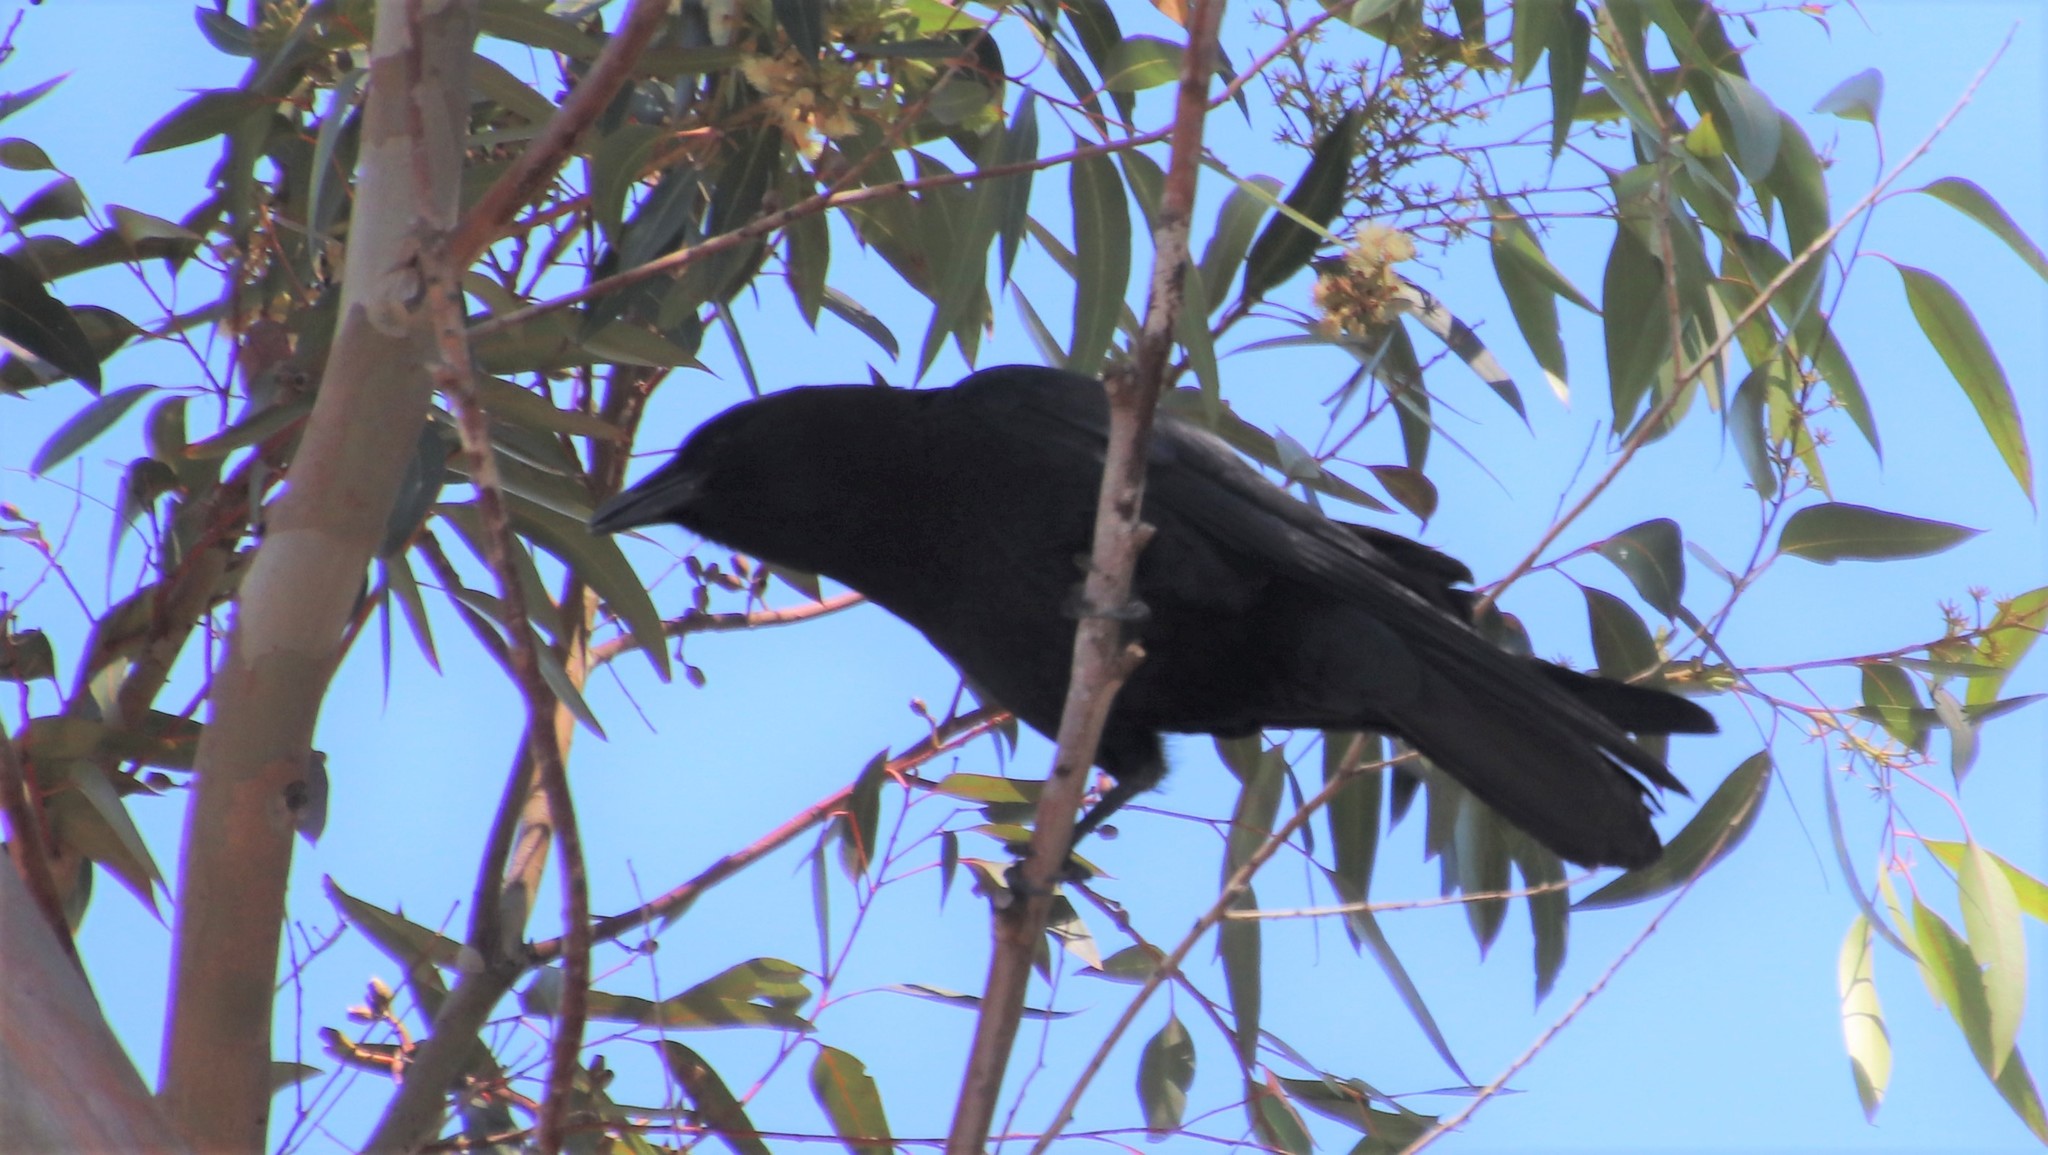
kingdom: Animalia
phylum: Chordata
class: Aves
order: Passeriformes
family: Corvidae
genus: Corvus
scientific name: Corvus brachyrhynchos
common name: American crow
